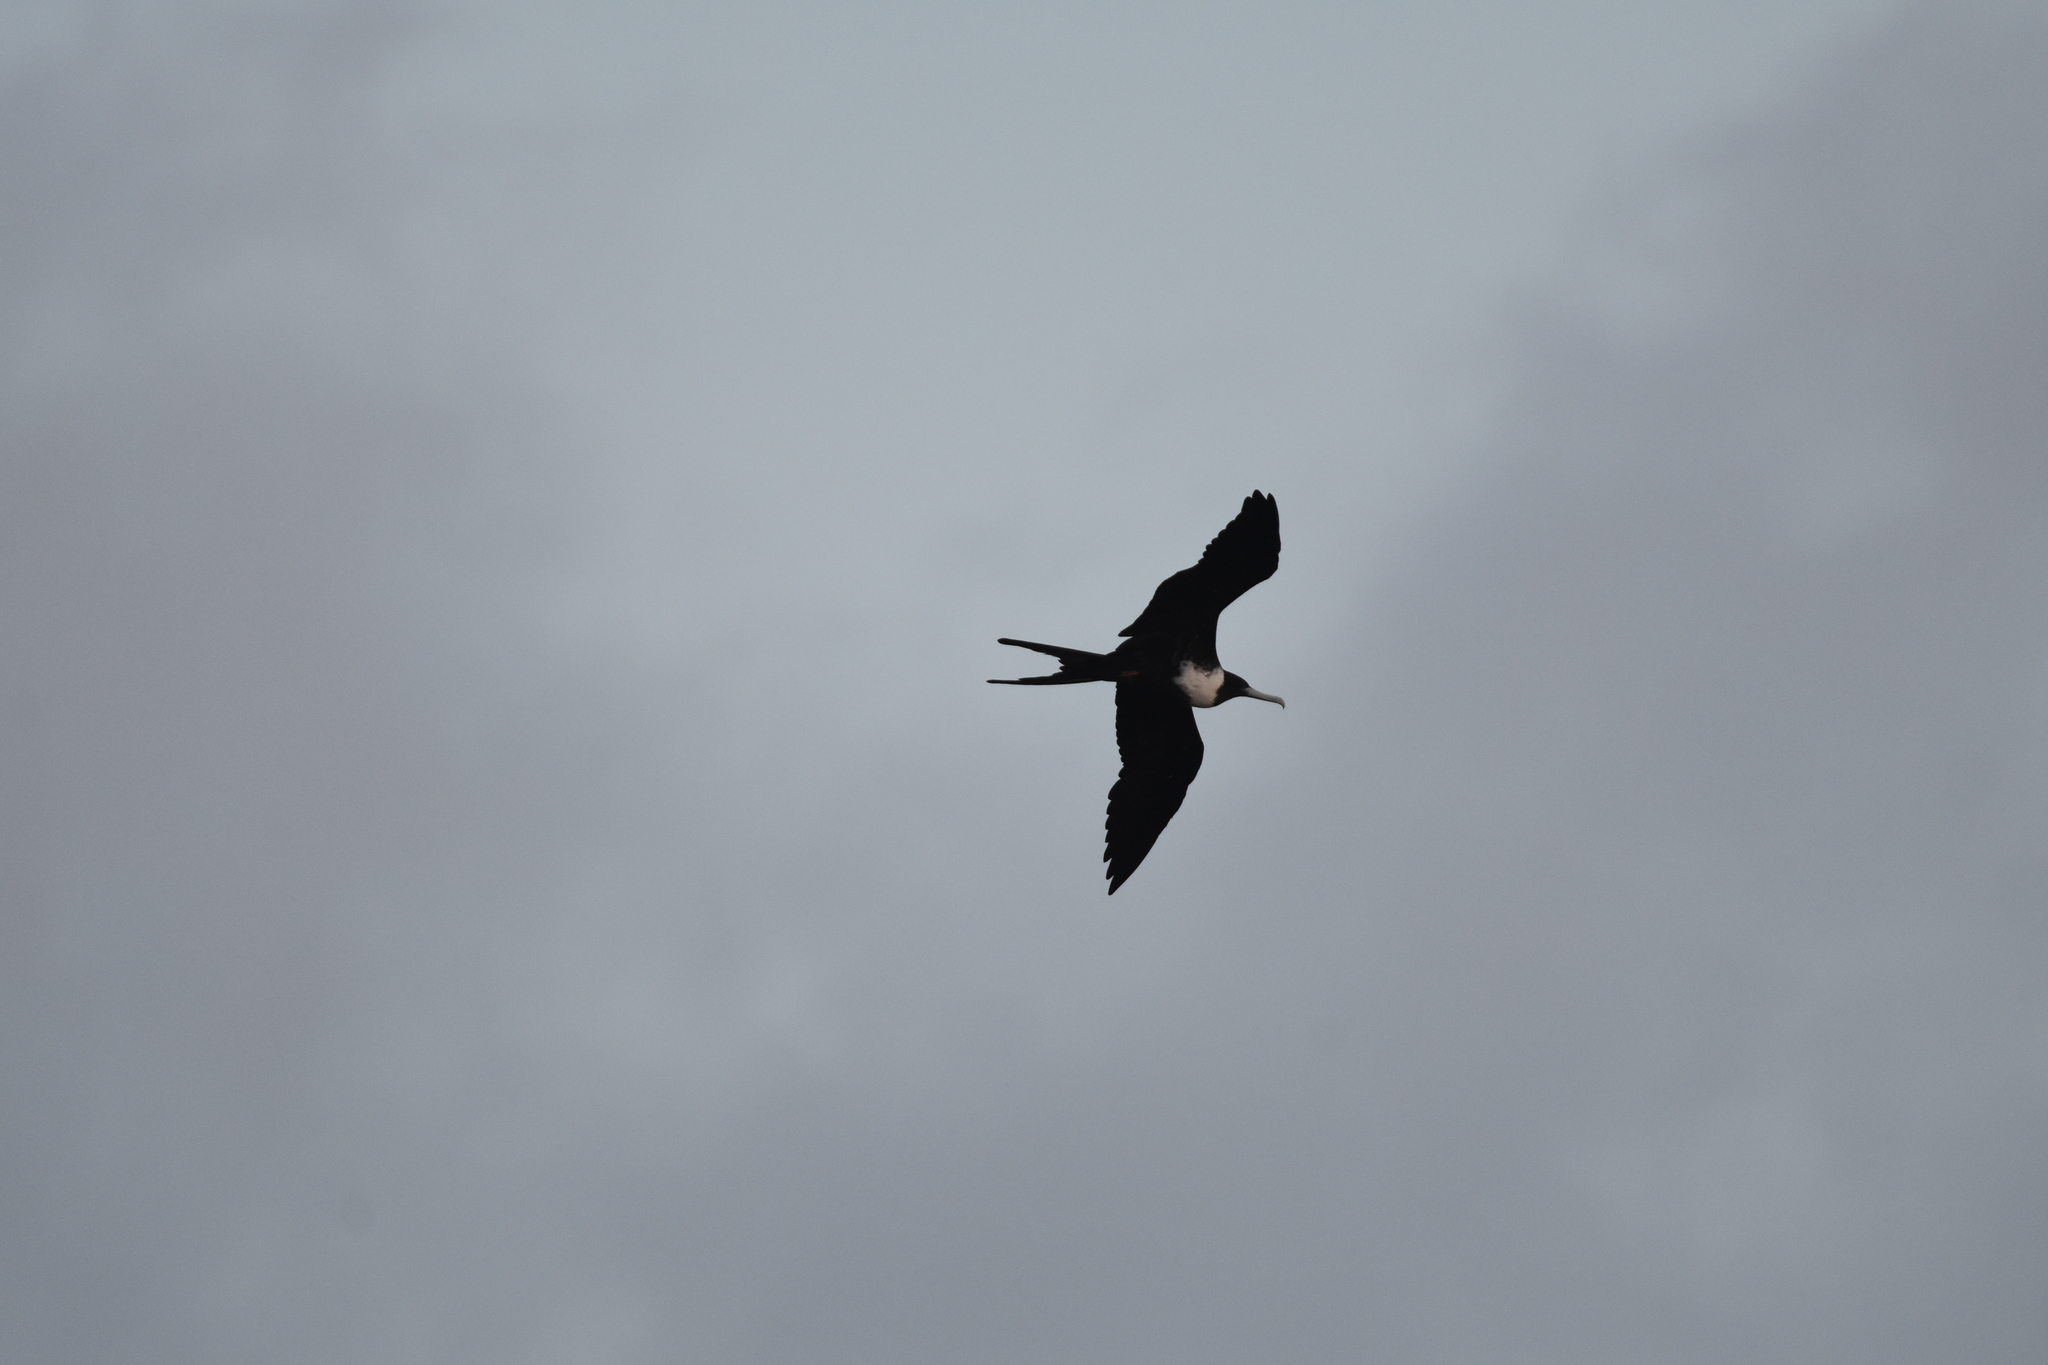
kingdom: Animalia
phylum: Chordata
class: Aves
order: Suliformes
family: Fregatidae
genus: Fregata
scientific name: Fregata magnificens
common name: Magnificent frigatebird
